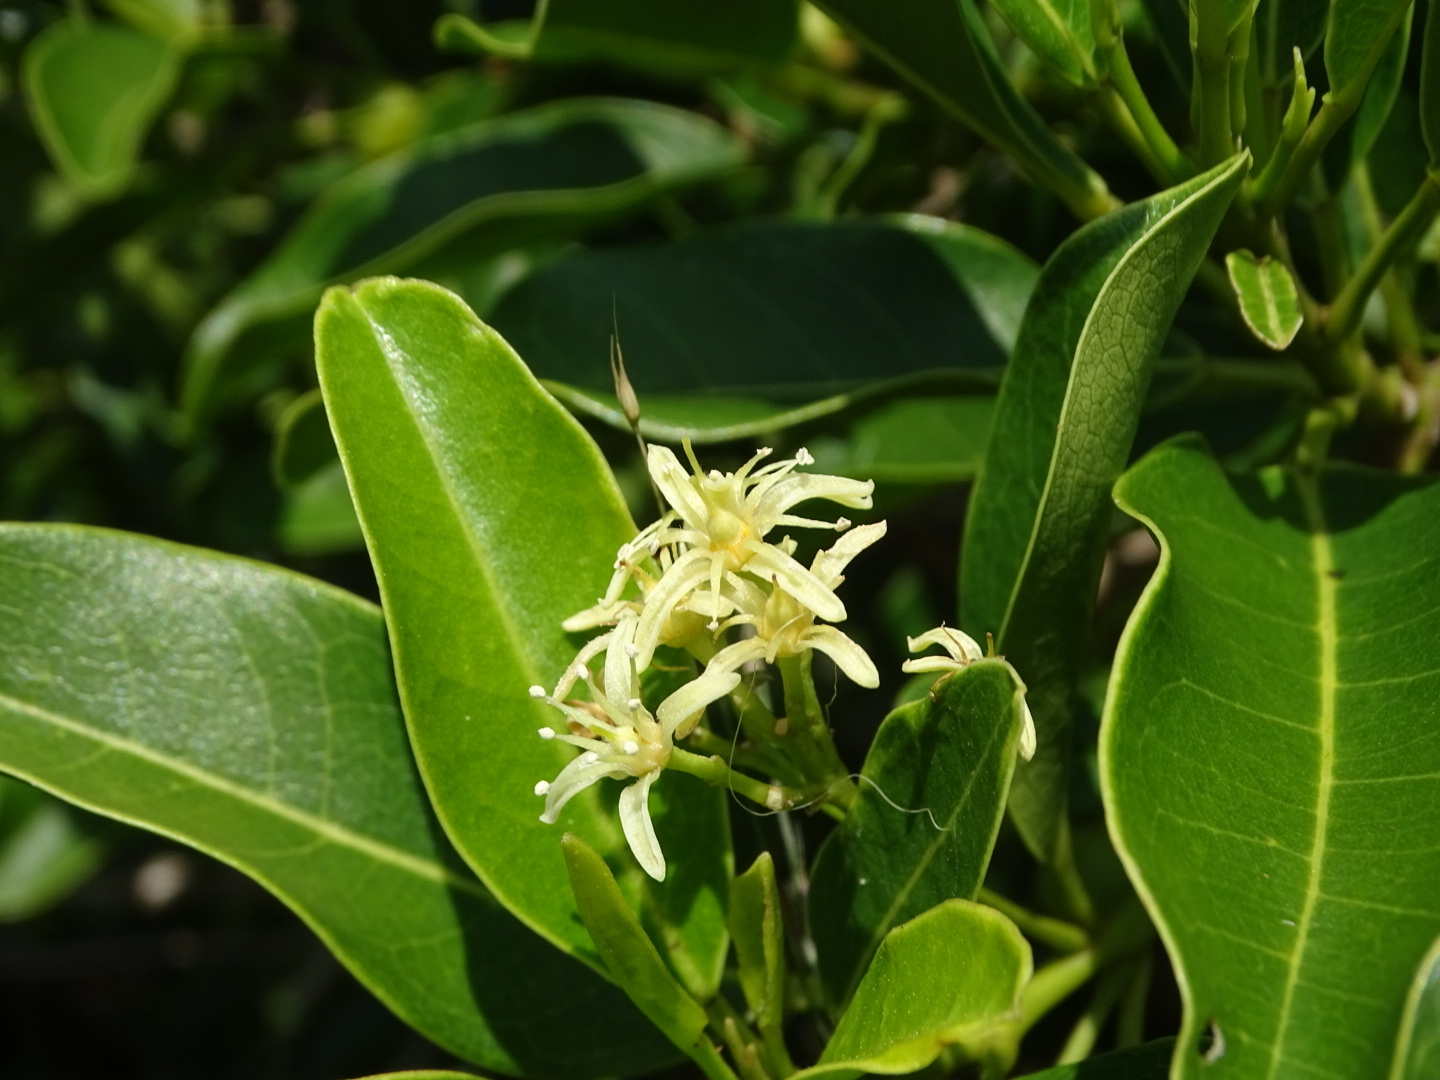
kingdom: Plantae
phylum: Tracheophyta
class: Magnoliopsida
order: Sapindales
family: Rutaceae
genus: Acronychia
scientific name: Acronychia pedunculata
